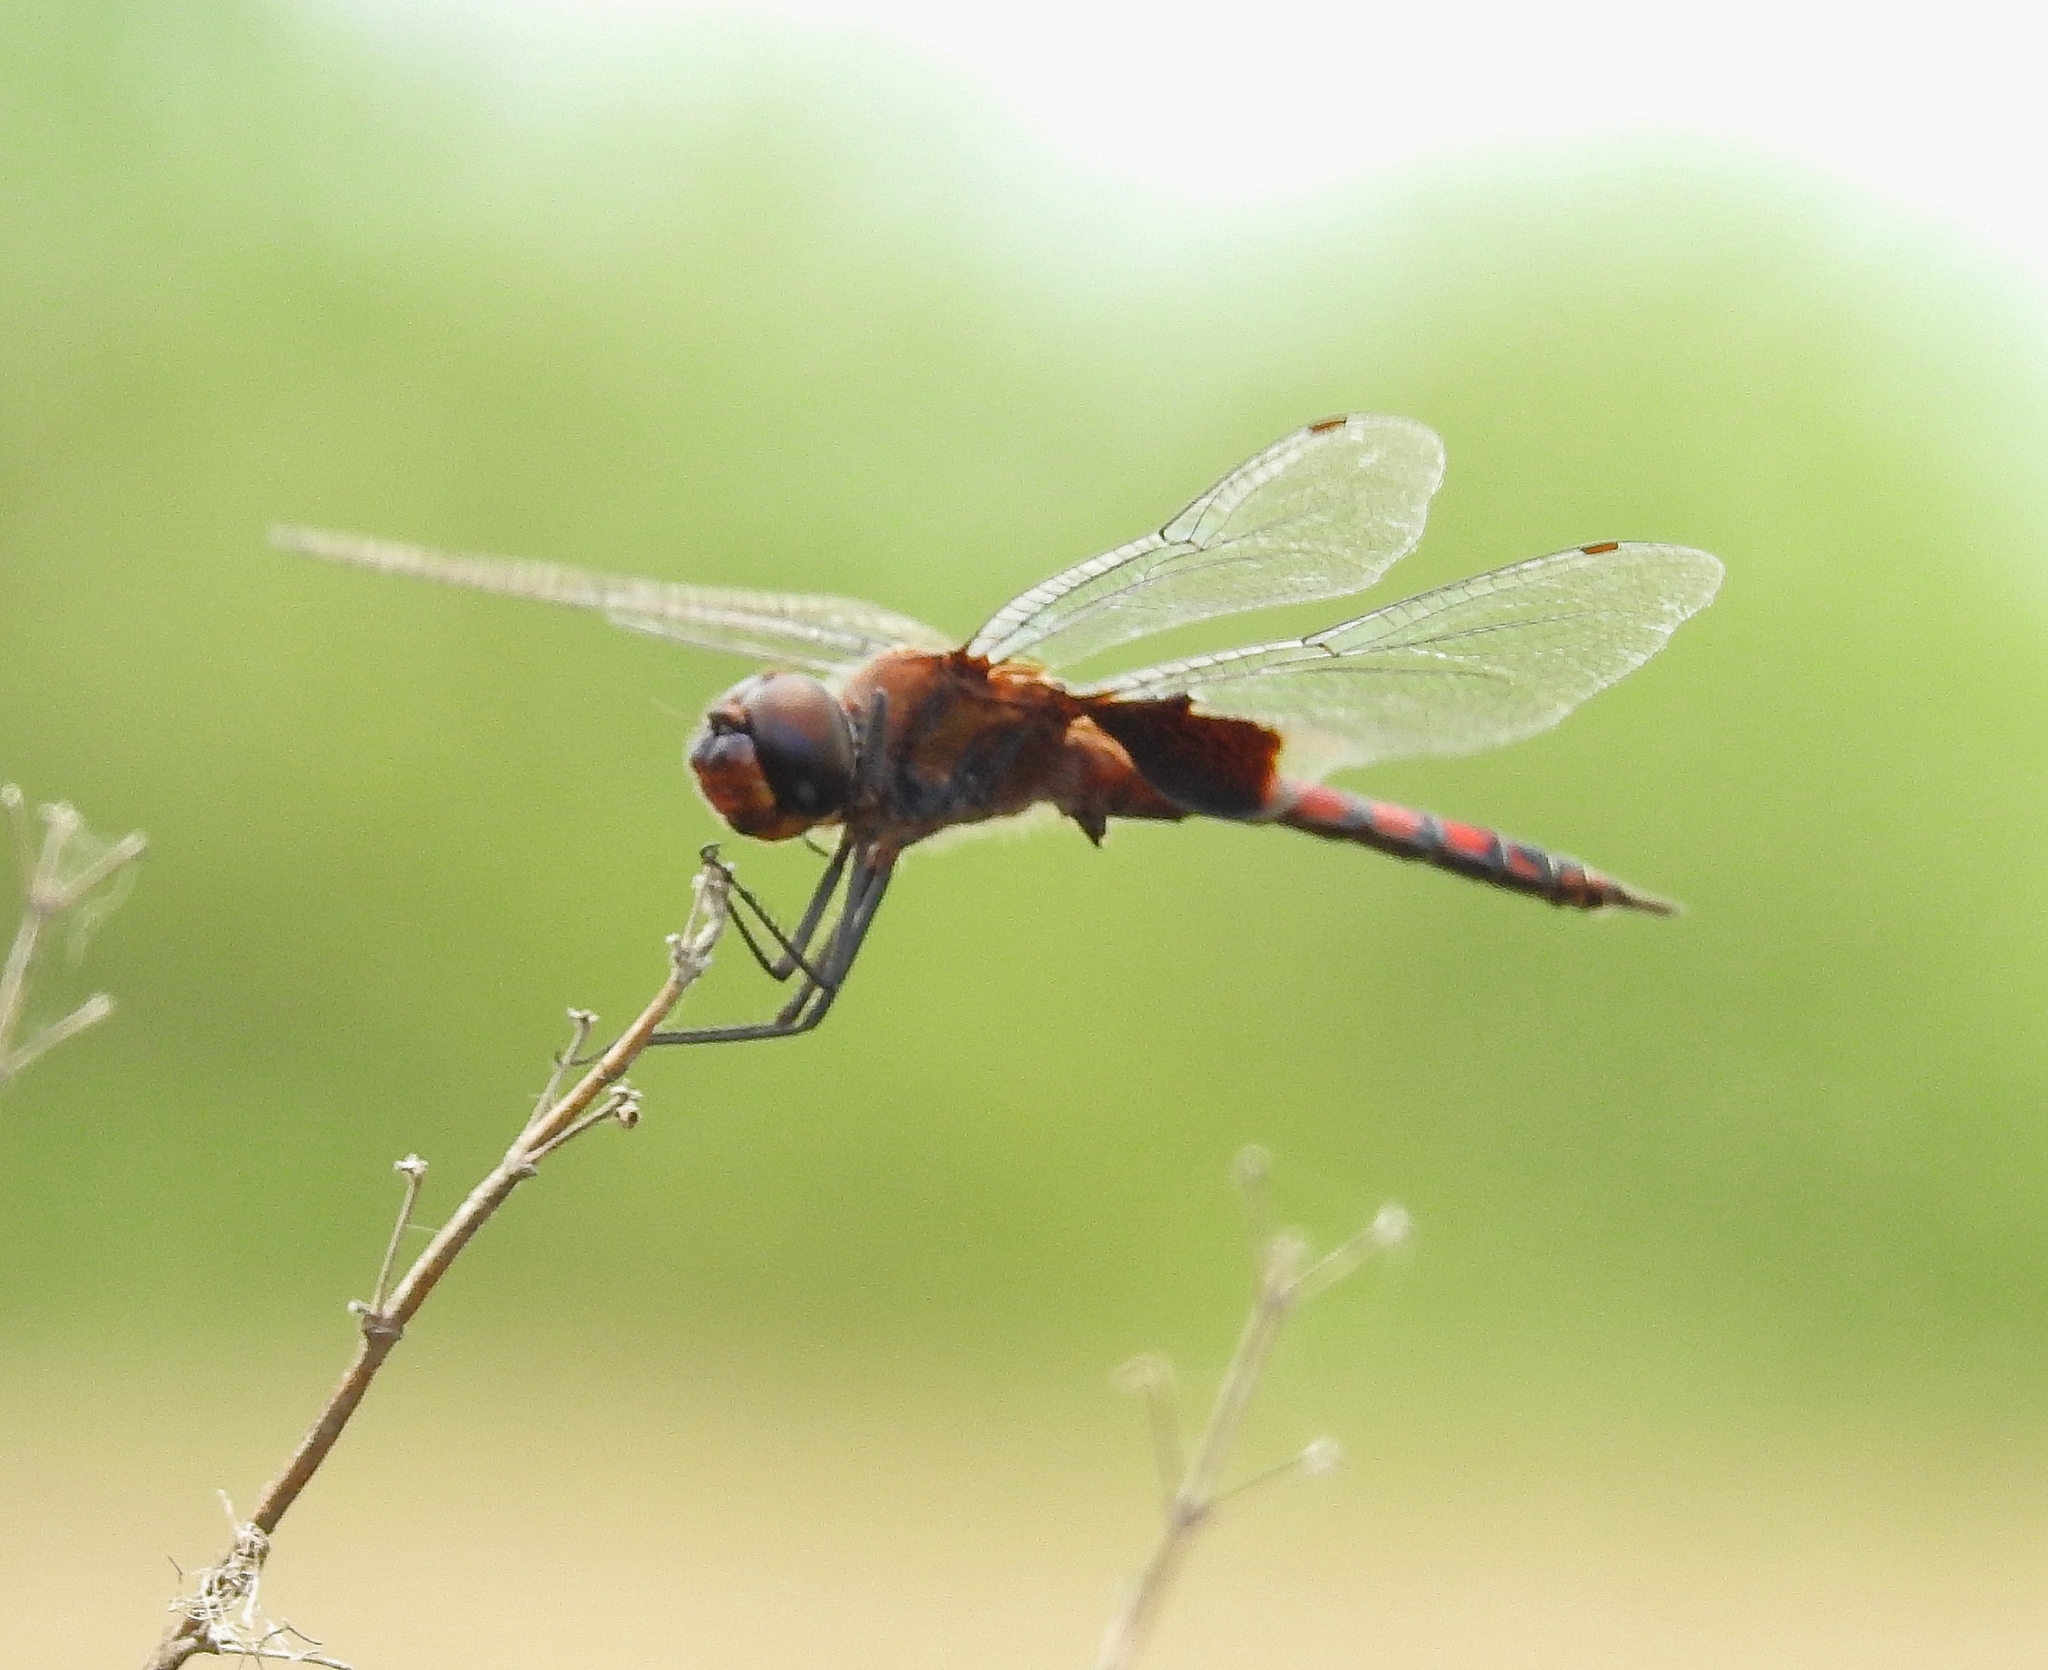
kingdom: Animalia
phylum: Arthropoda
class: Insecta
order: Odonata
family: Libellulidae
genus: Tramea
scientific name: Tramea limbata
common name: Ferruginous glider
